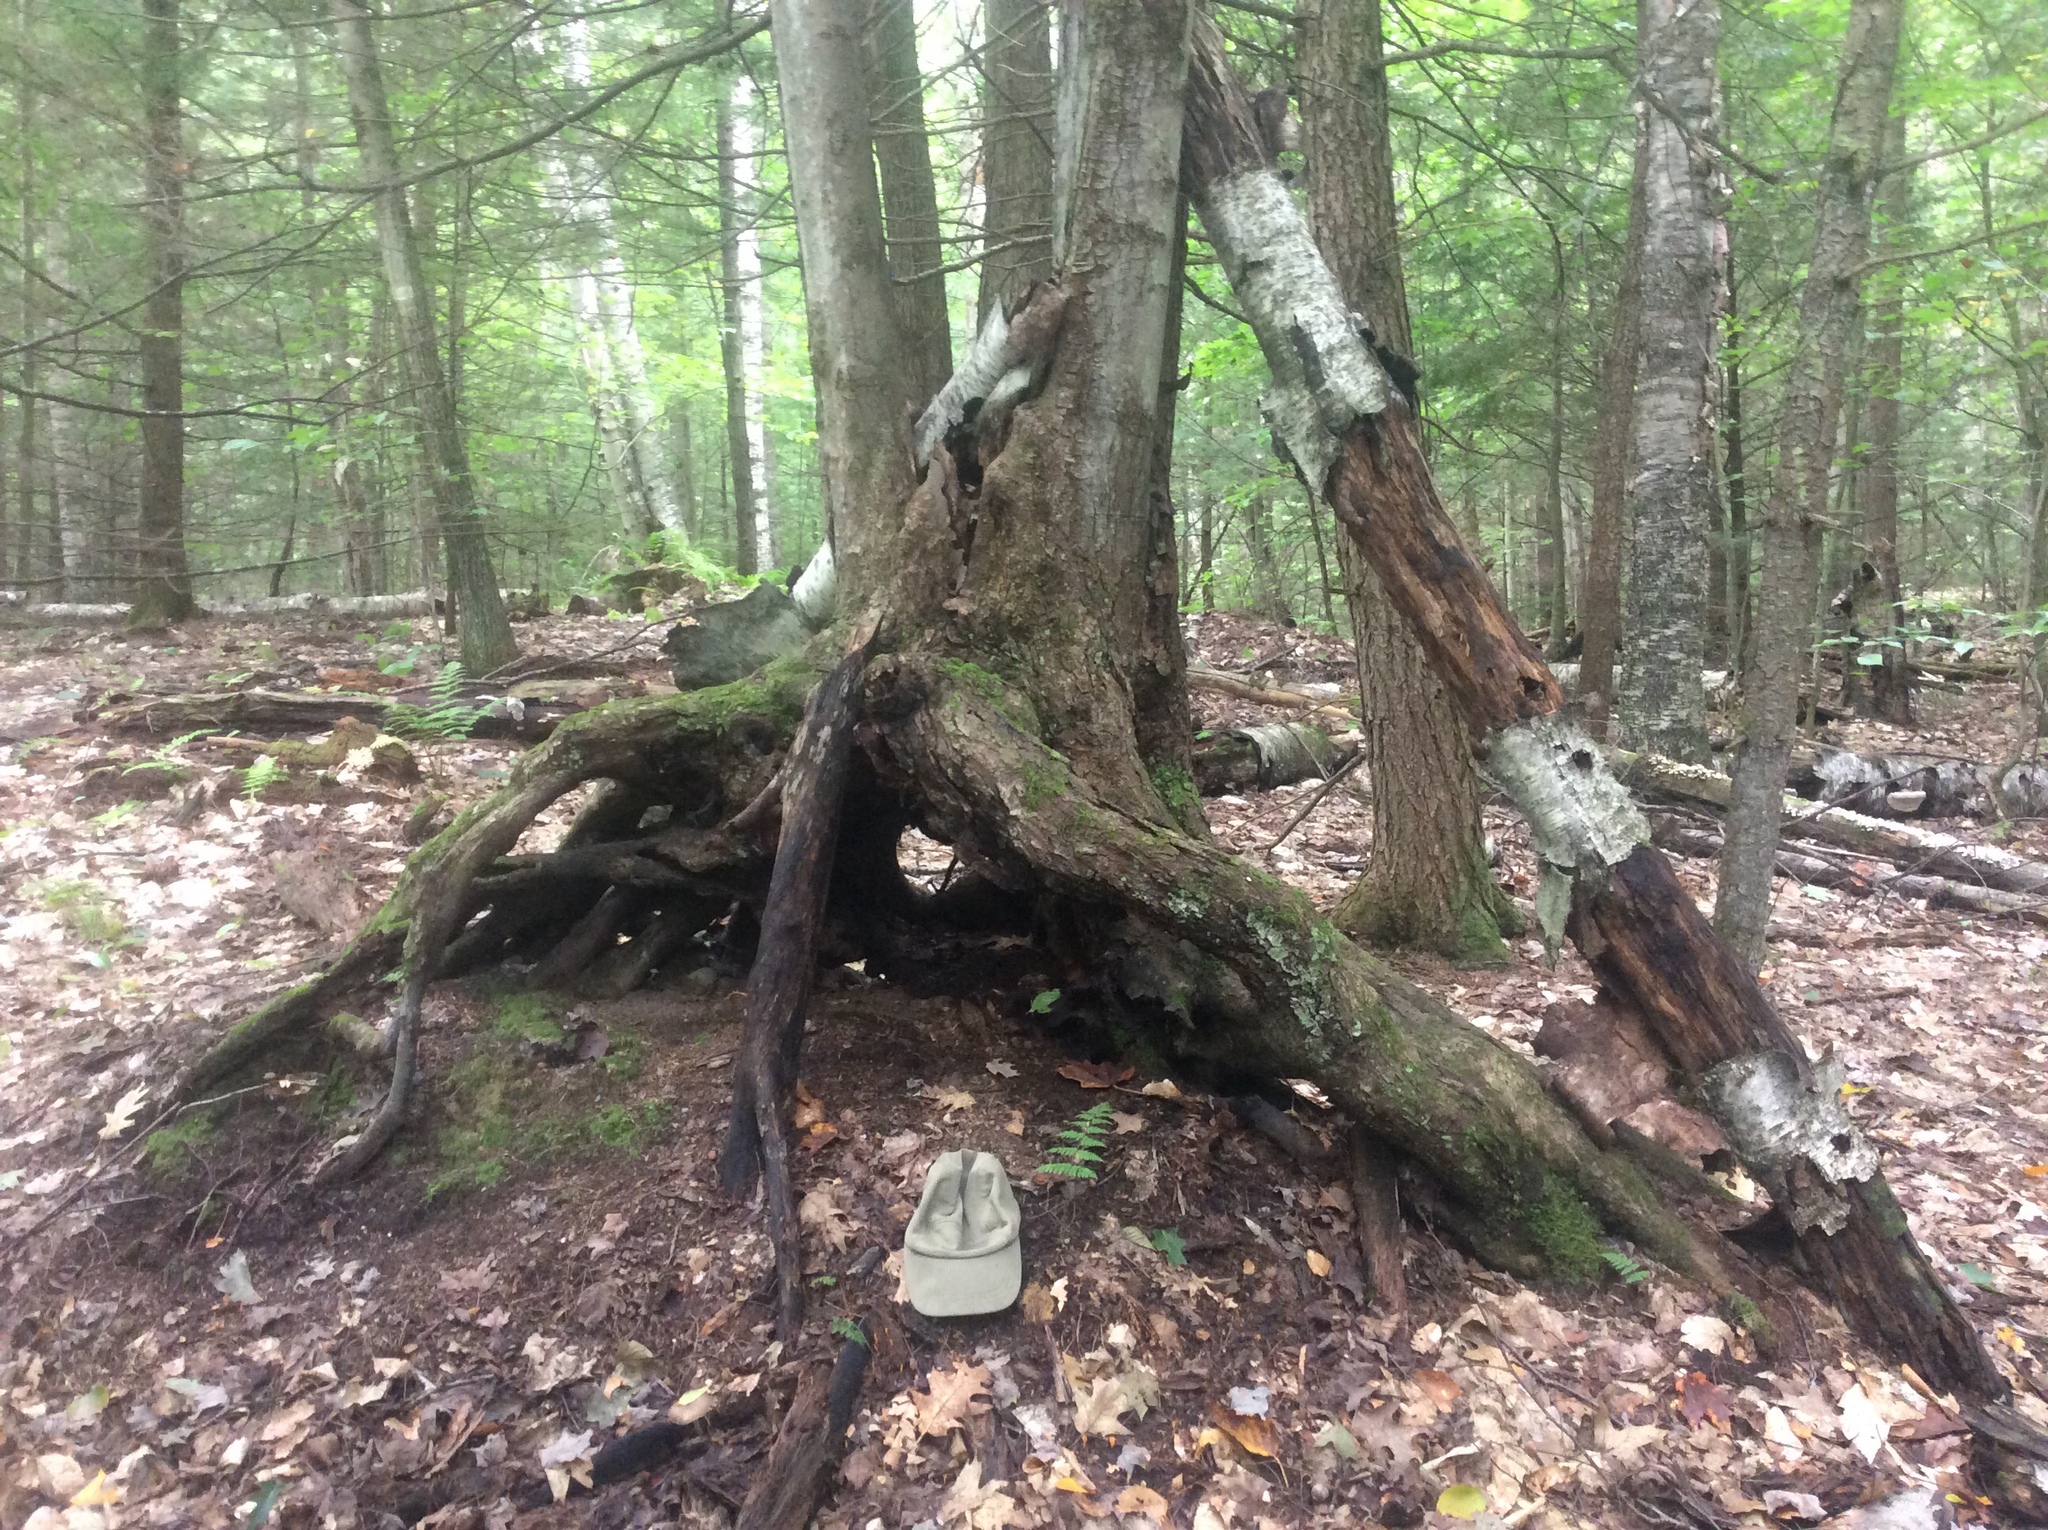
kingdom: Plantae
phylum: Tracheophyta
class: Magnoliopsida
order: Sapindales
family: Sapindaceae
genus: Acer
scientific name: Acer rubrum
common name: Red maple
